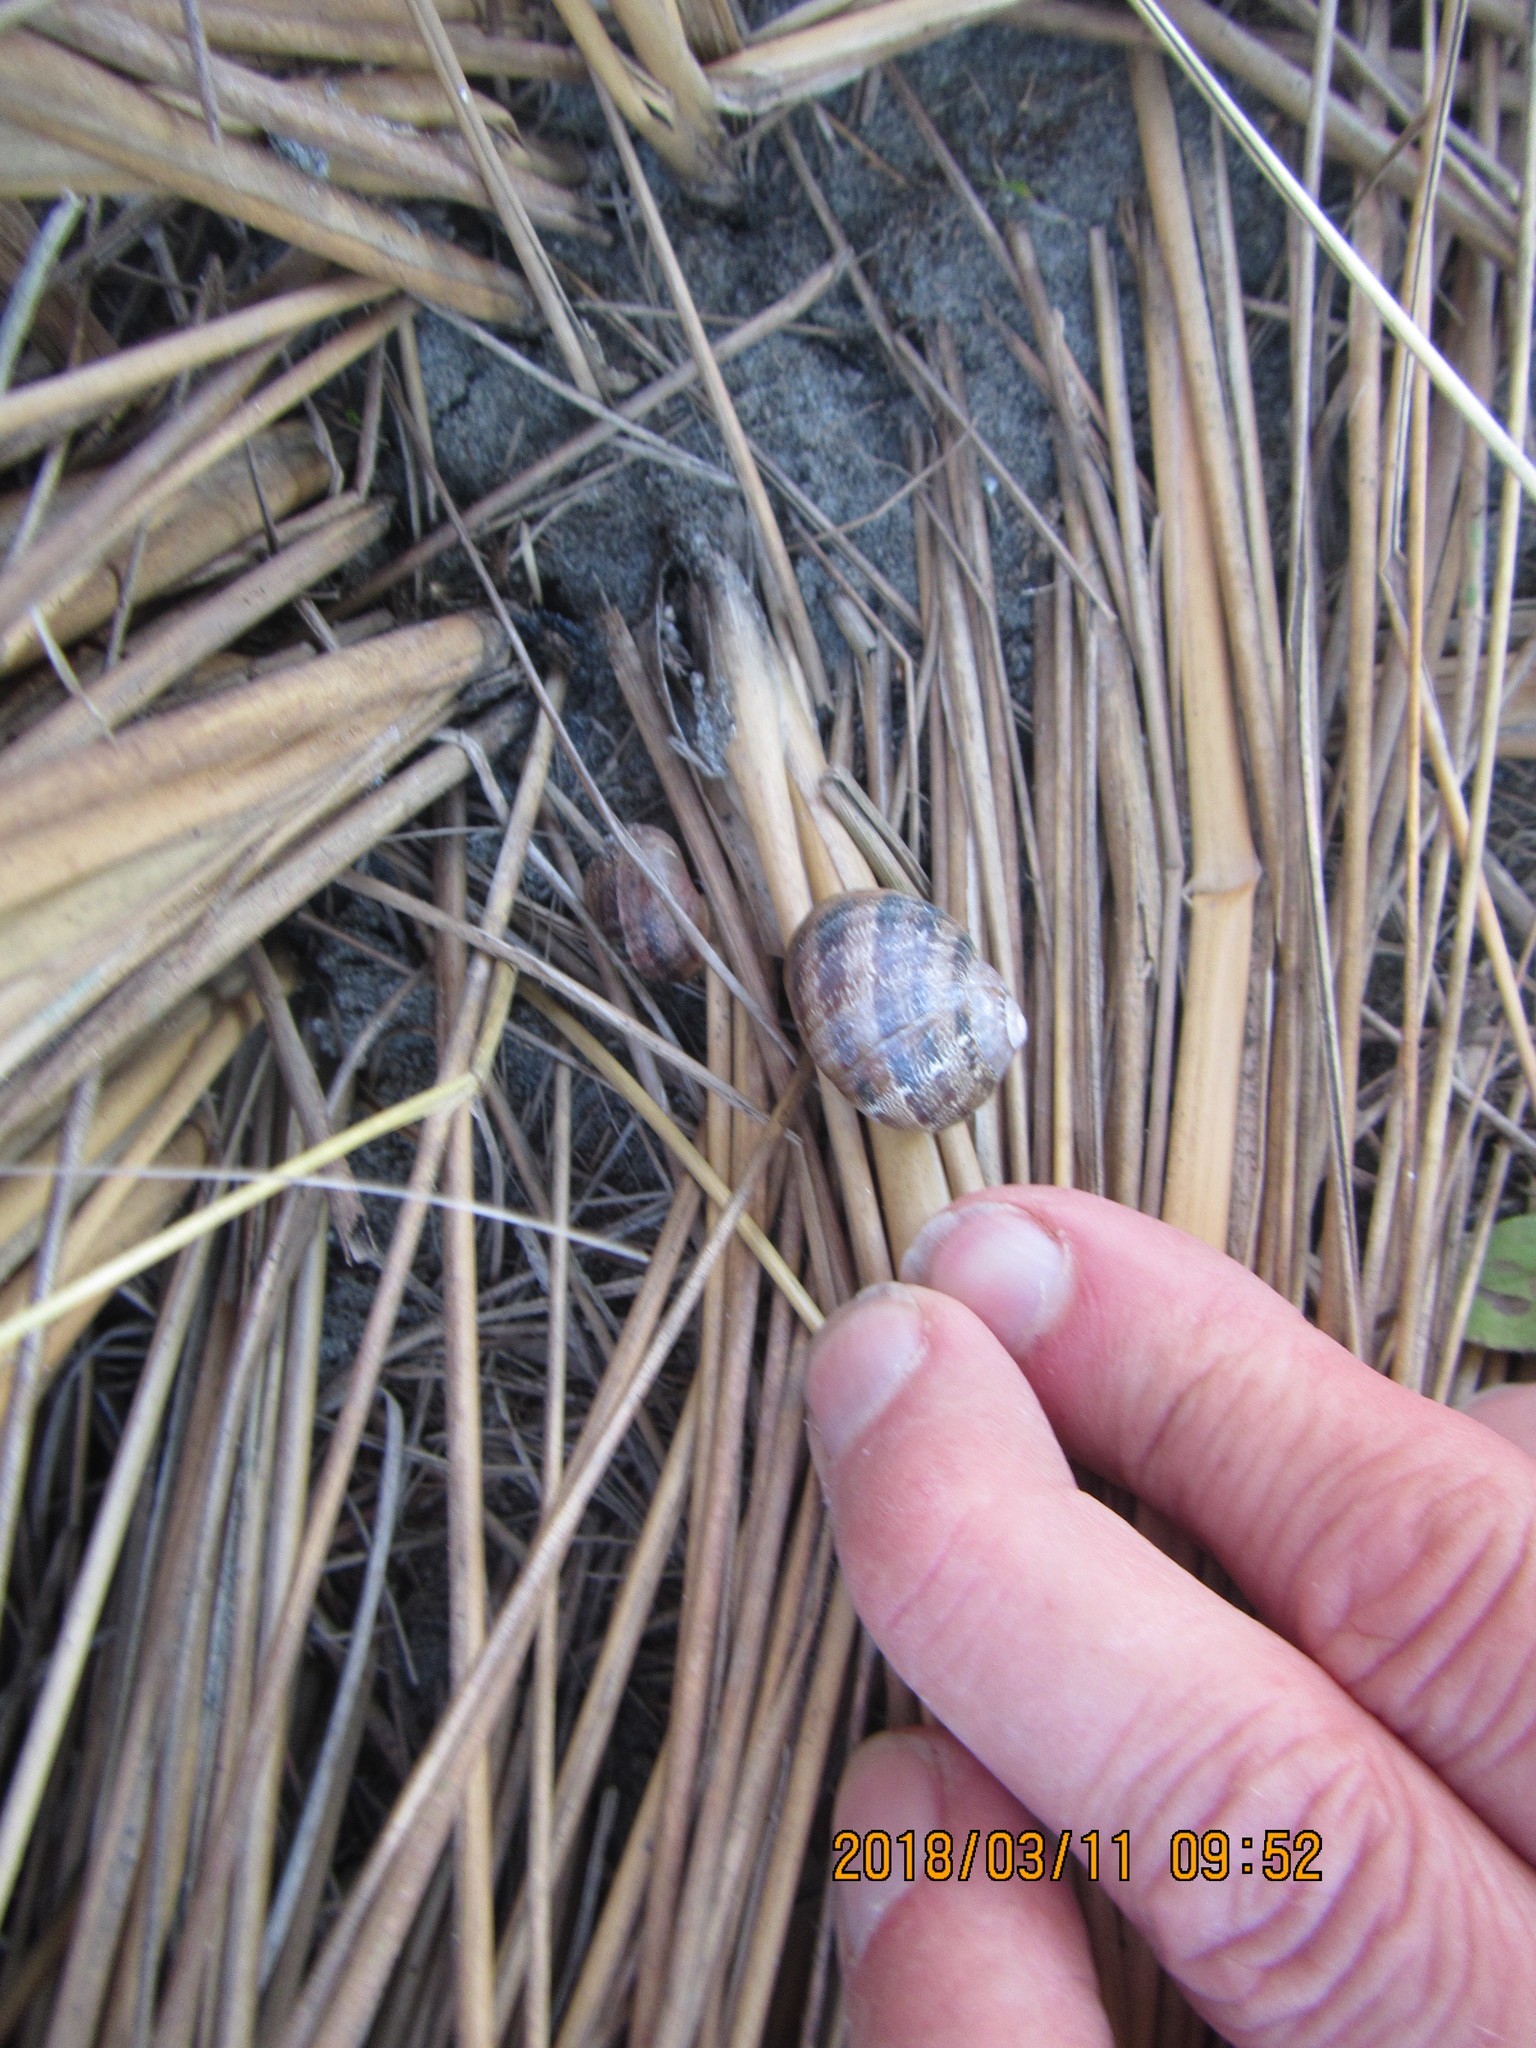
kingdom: Animalia
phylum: Mollusca
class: Gastropoda
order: Stylommatophora
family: Helicidae
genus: Cornu
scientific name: Cornu aspersum
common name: Brown garden snail
